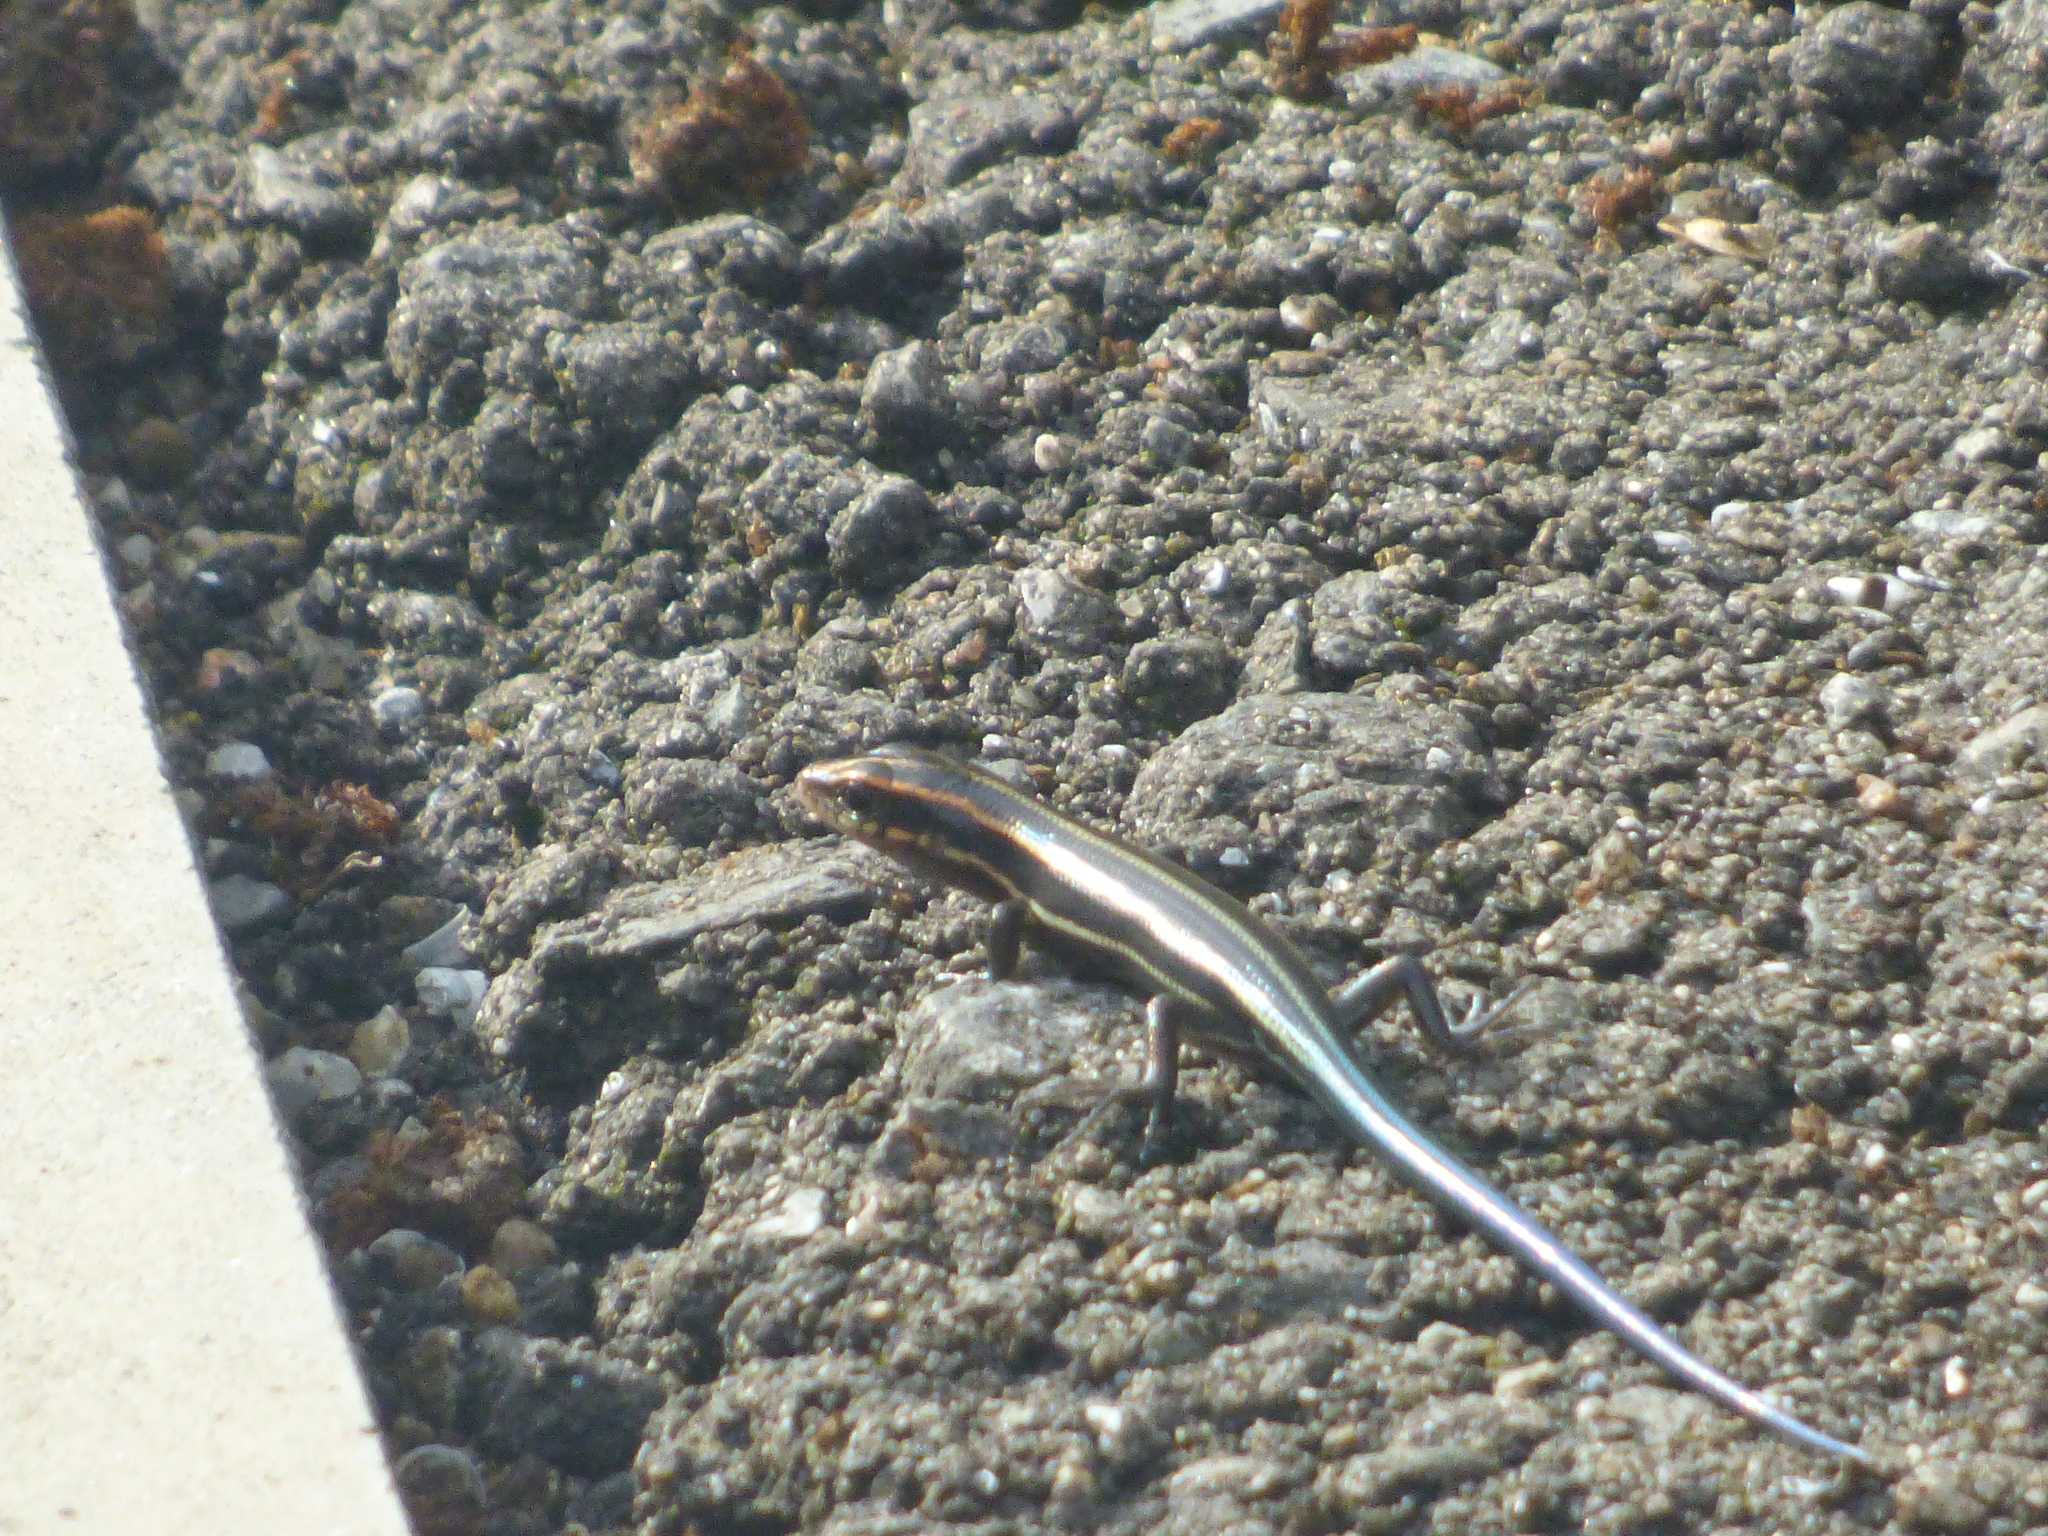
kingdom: Animalia
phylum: Chordata
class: Squamata
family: Scincidae
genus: Plestiodon
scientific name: Plestiodon japonicus
